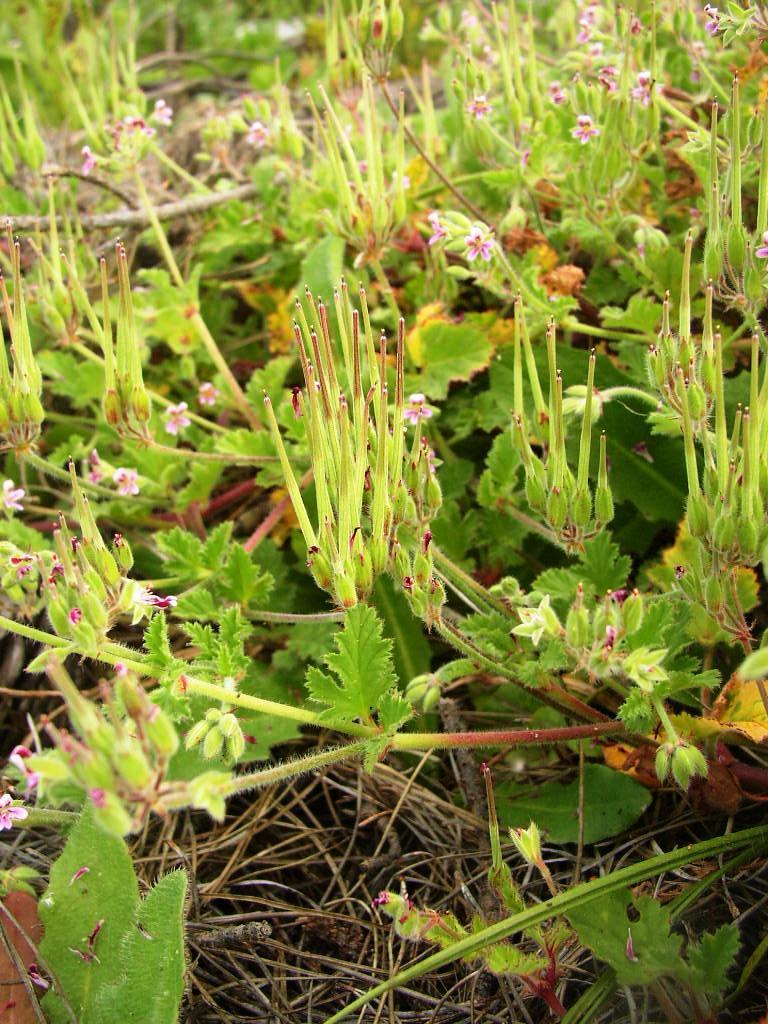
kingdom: Plantae
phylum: Tracheophyta
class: Magnoliopsida
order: Geraniales
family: Geraniaceae
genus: Pelargonium
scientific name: Pelargonium althaeoides
